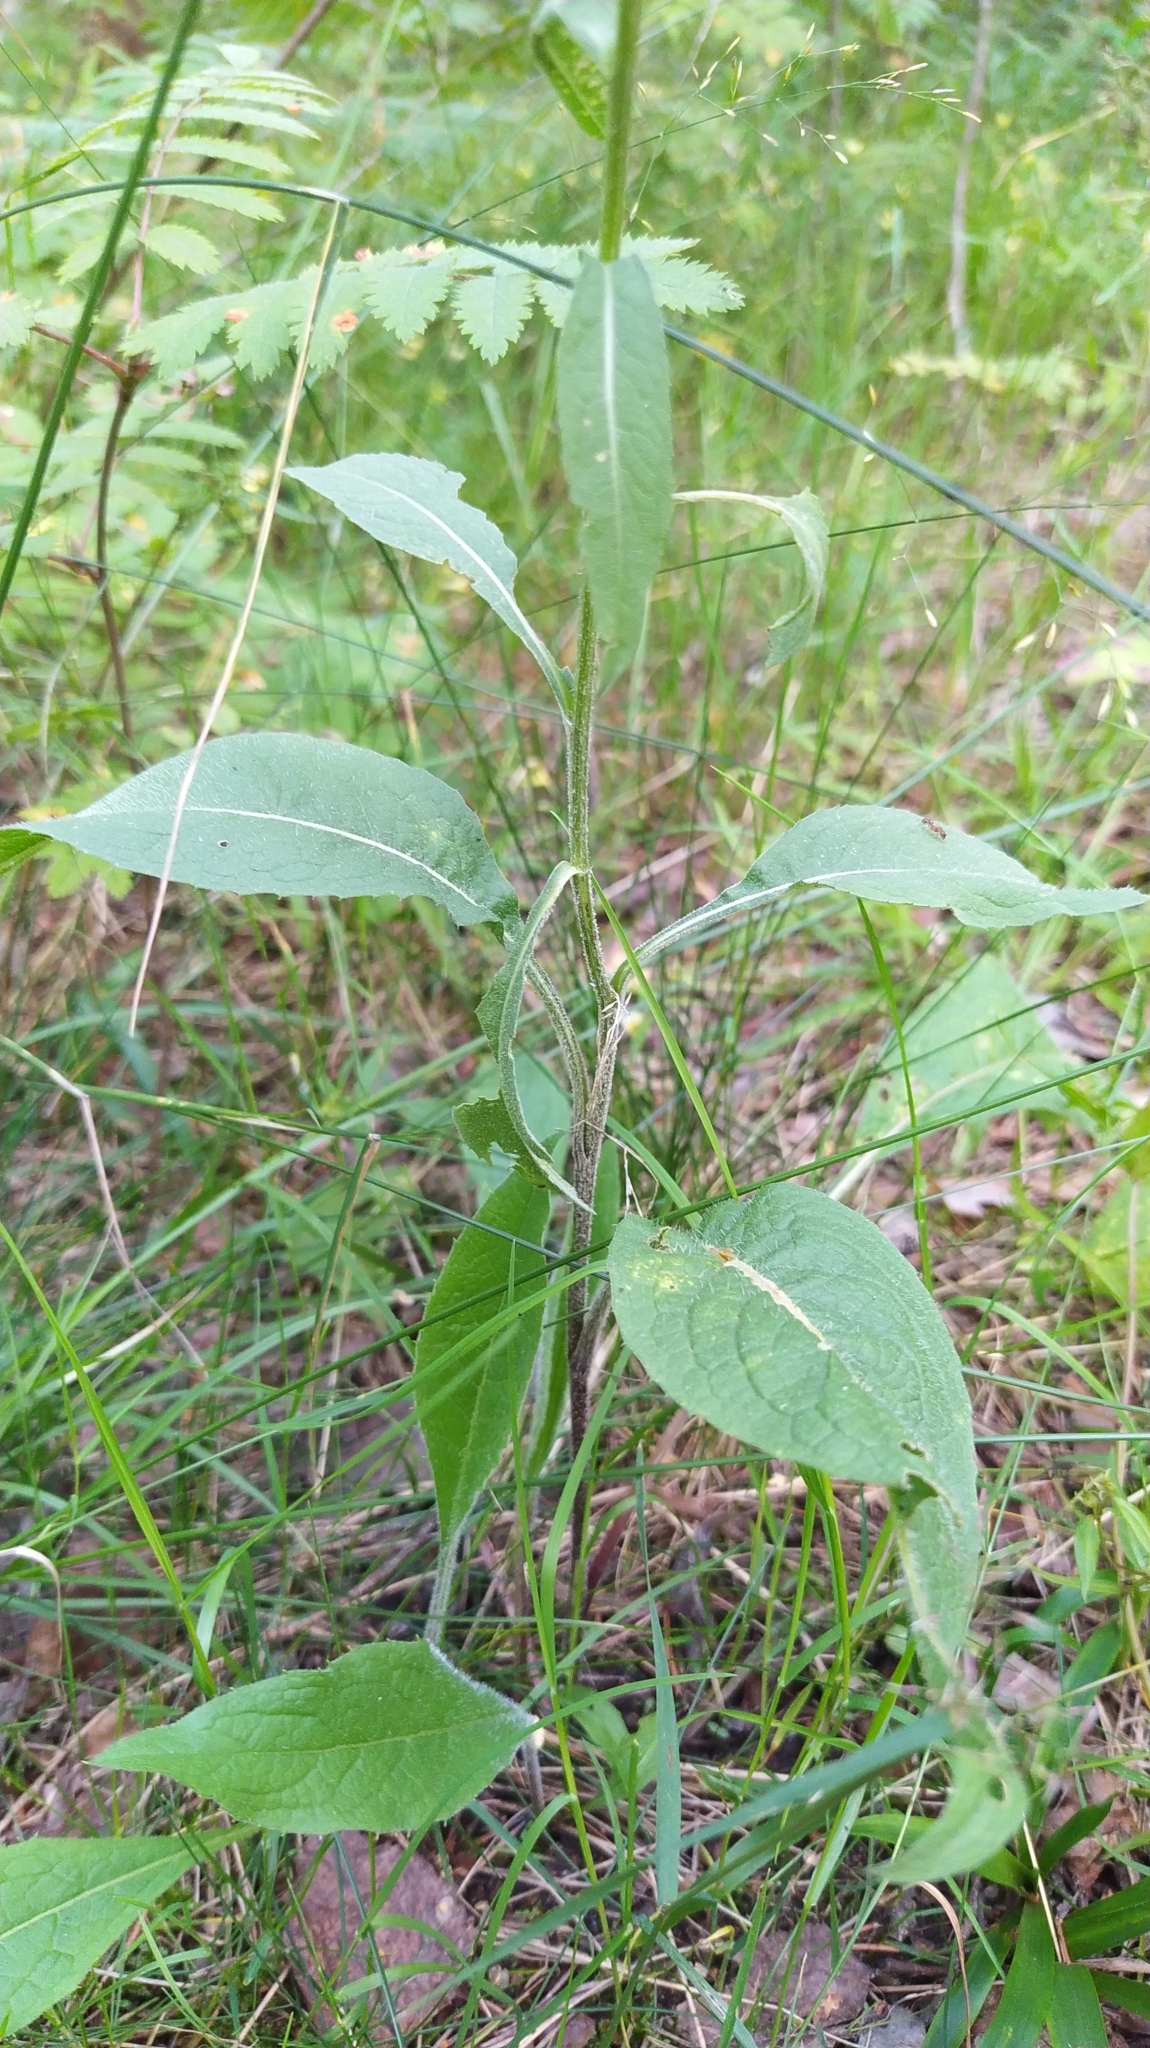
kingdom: Plantae
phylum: Tracheophyta
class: Magnoliopsida
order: Asterales
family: Asteraceae
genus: Centaurea
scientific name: Centaurea phrygia
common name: Wig knapweed
